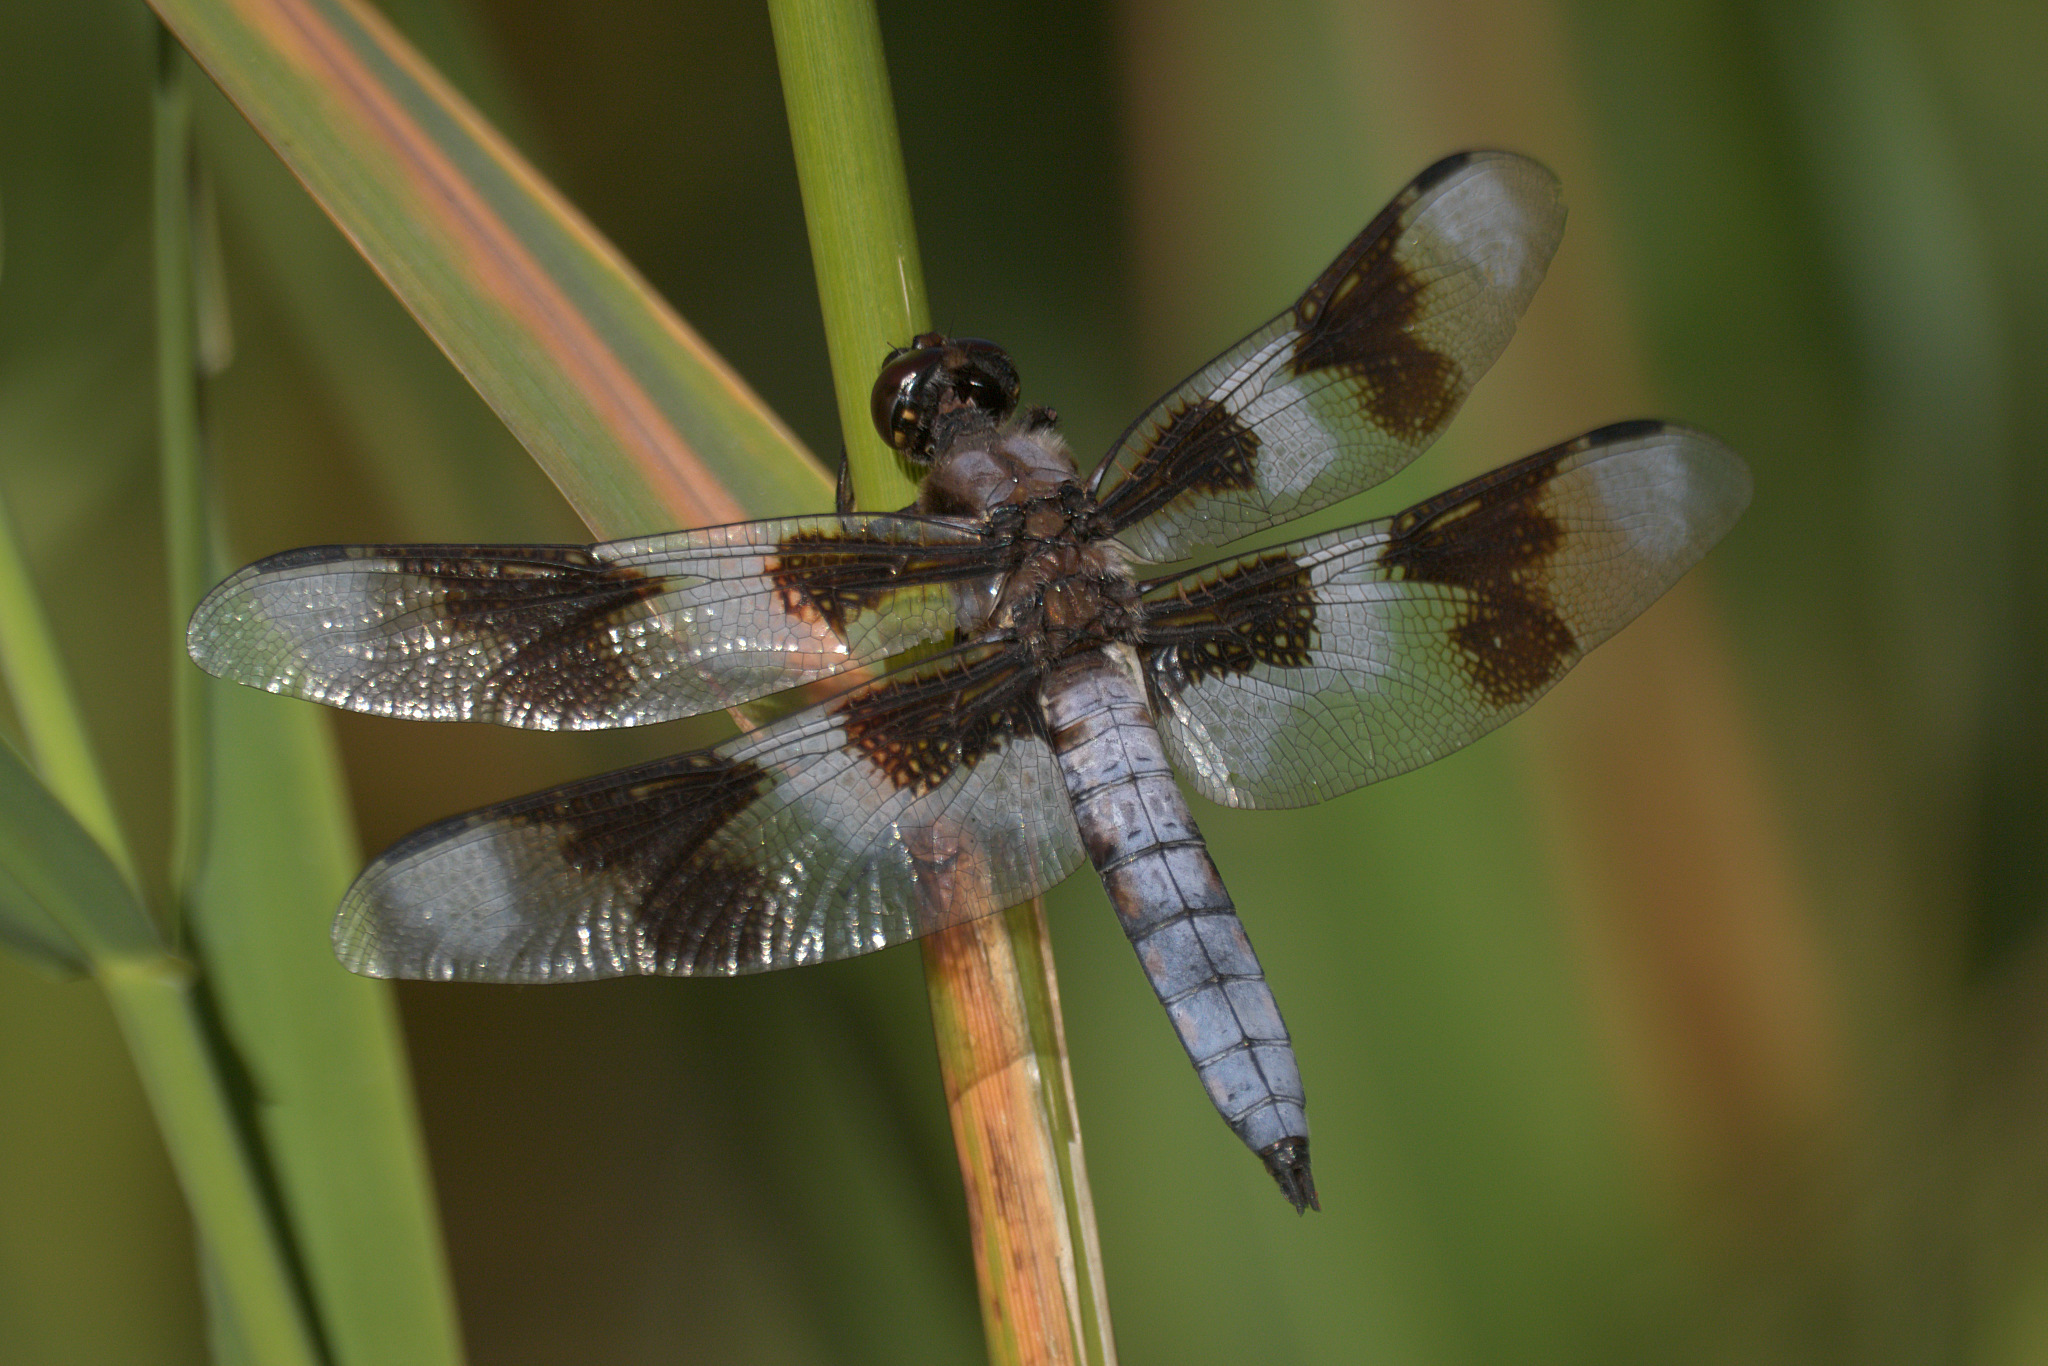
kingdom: Animalia
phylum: Arthropoda
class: Insecta
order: Odonata
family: Libellulidae
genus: Libellula
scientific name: Libellula forensis
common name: Eight-spotted skimmer
